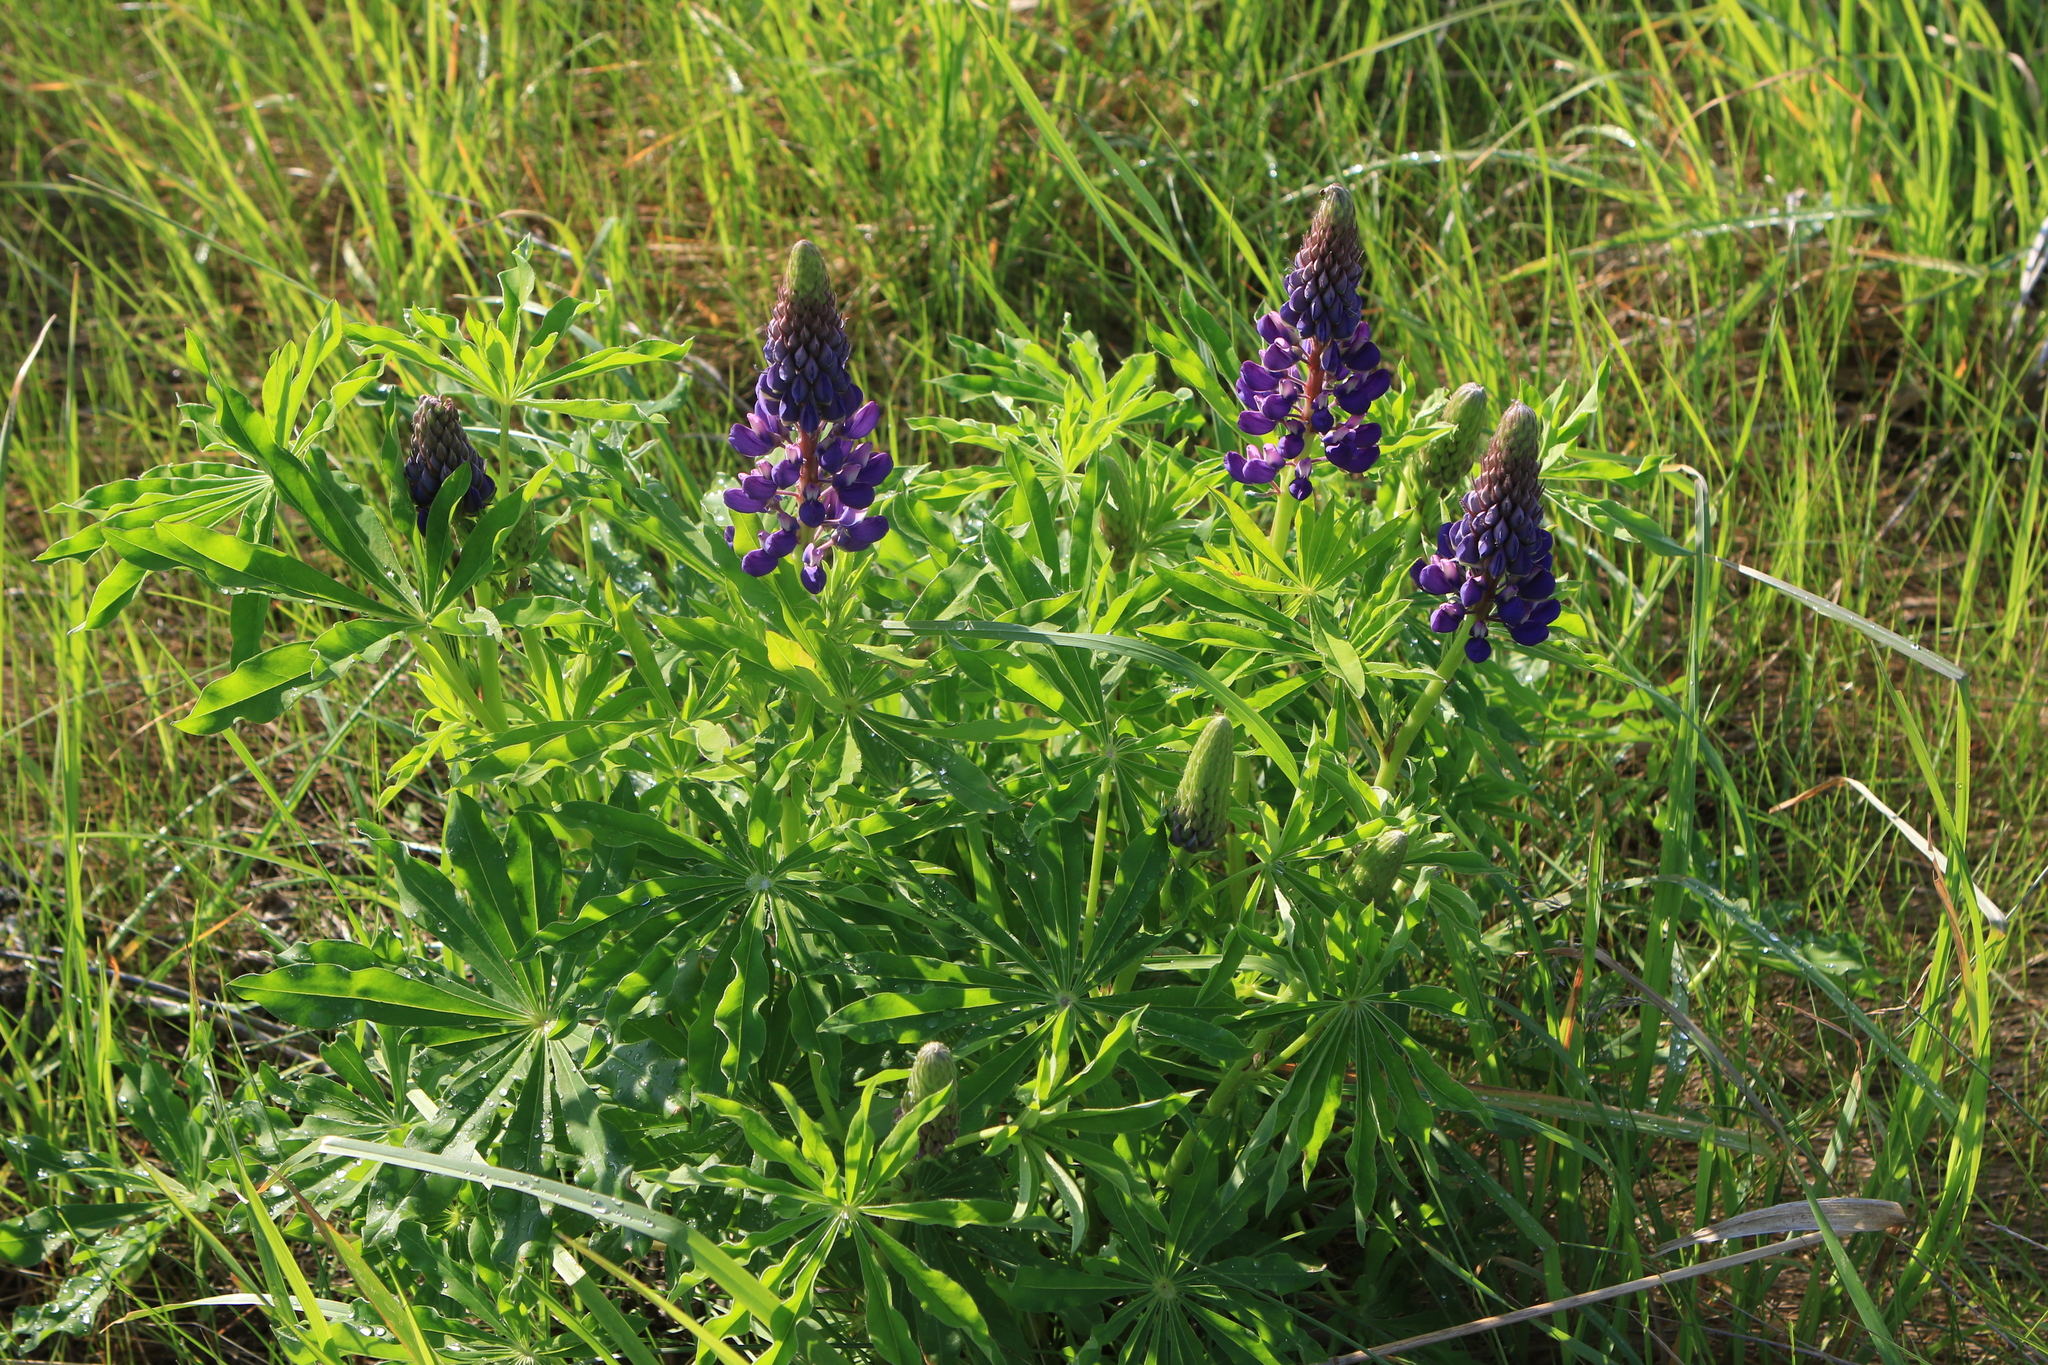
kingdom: Plantae
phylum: Tracheophyta
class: Magnoliopsida
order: Fabales
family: Fabaceae
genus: Lupinus
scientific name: Lupinus polyphyllus
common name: Garden lupin
